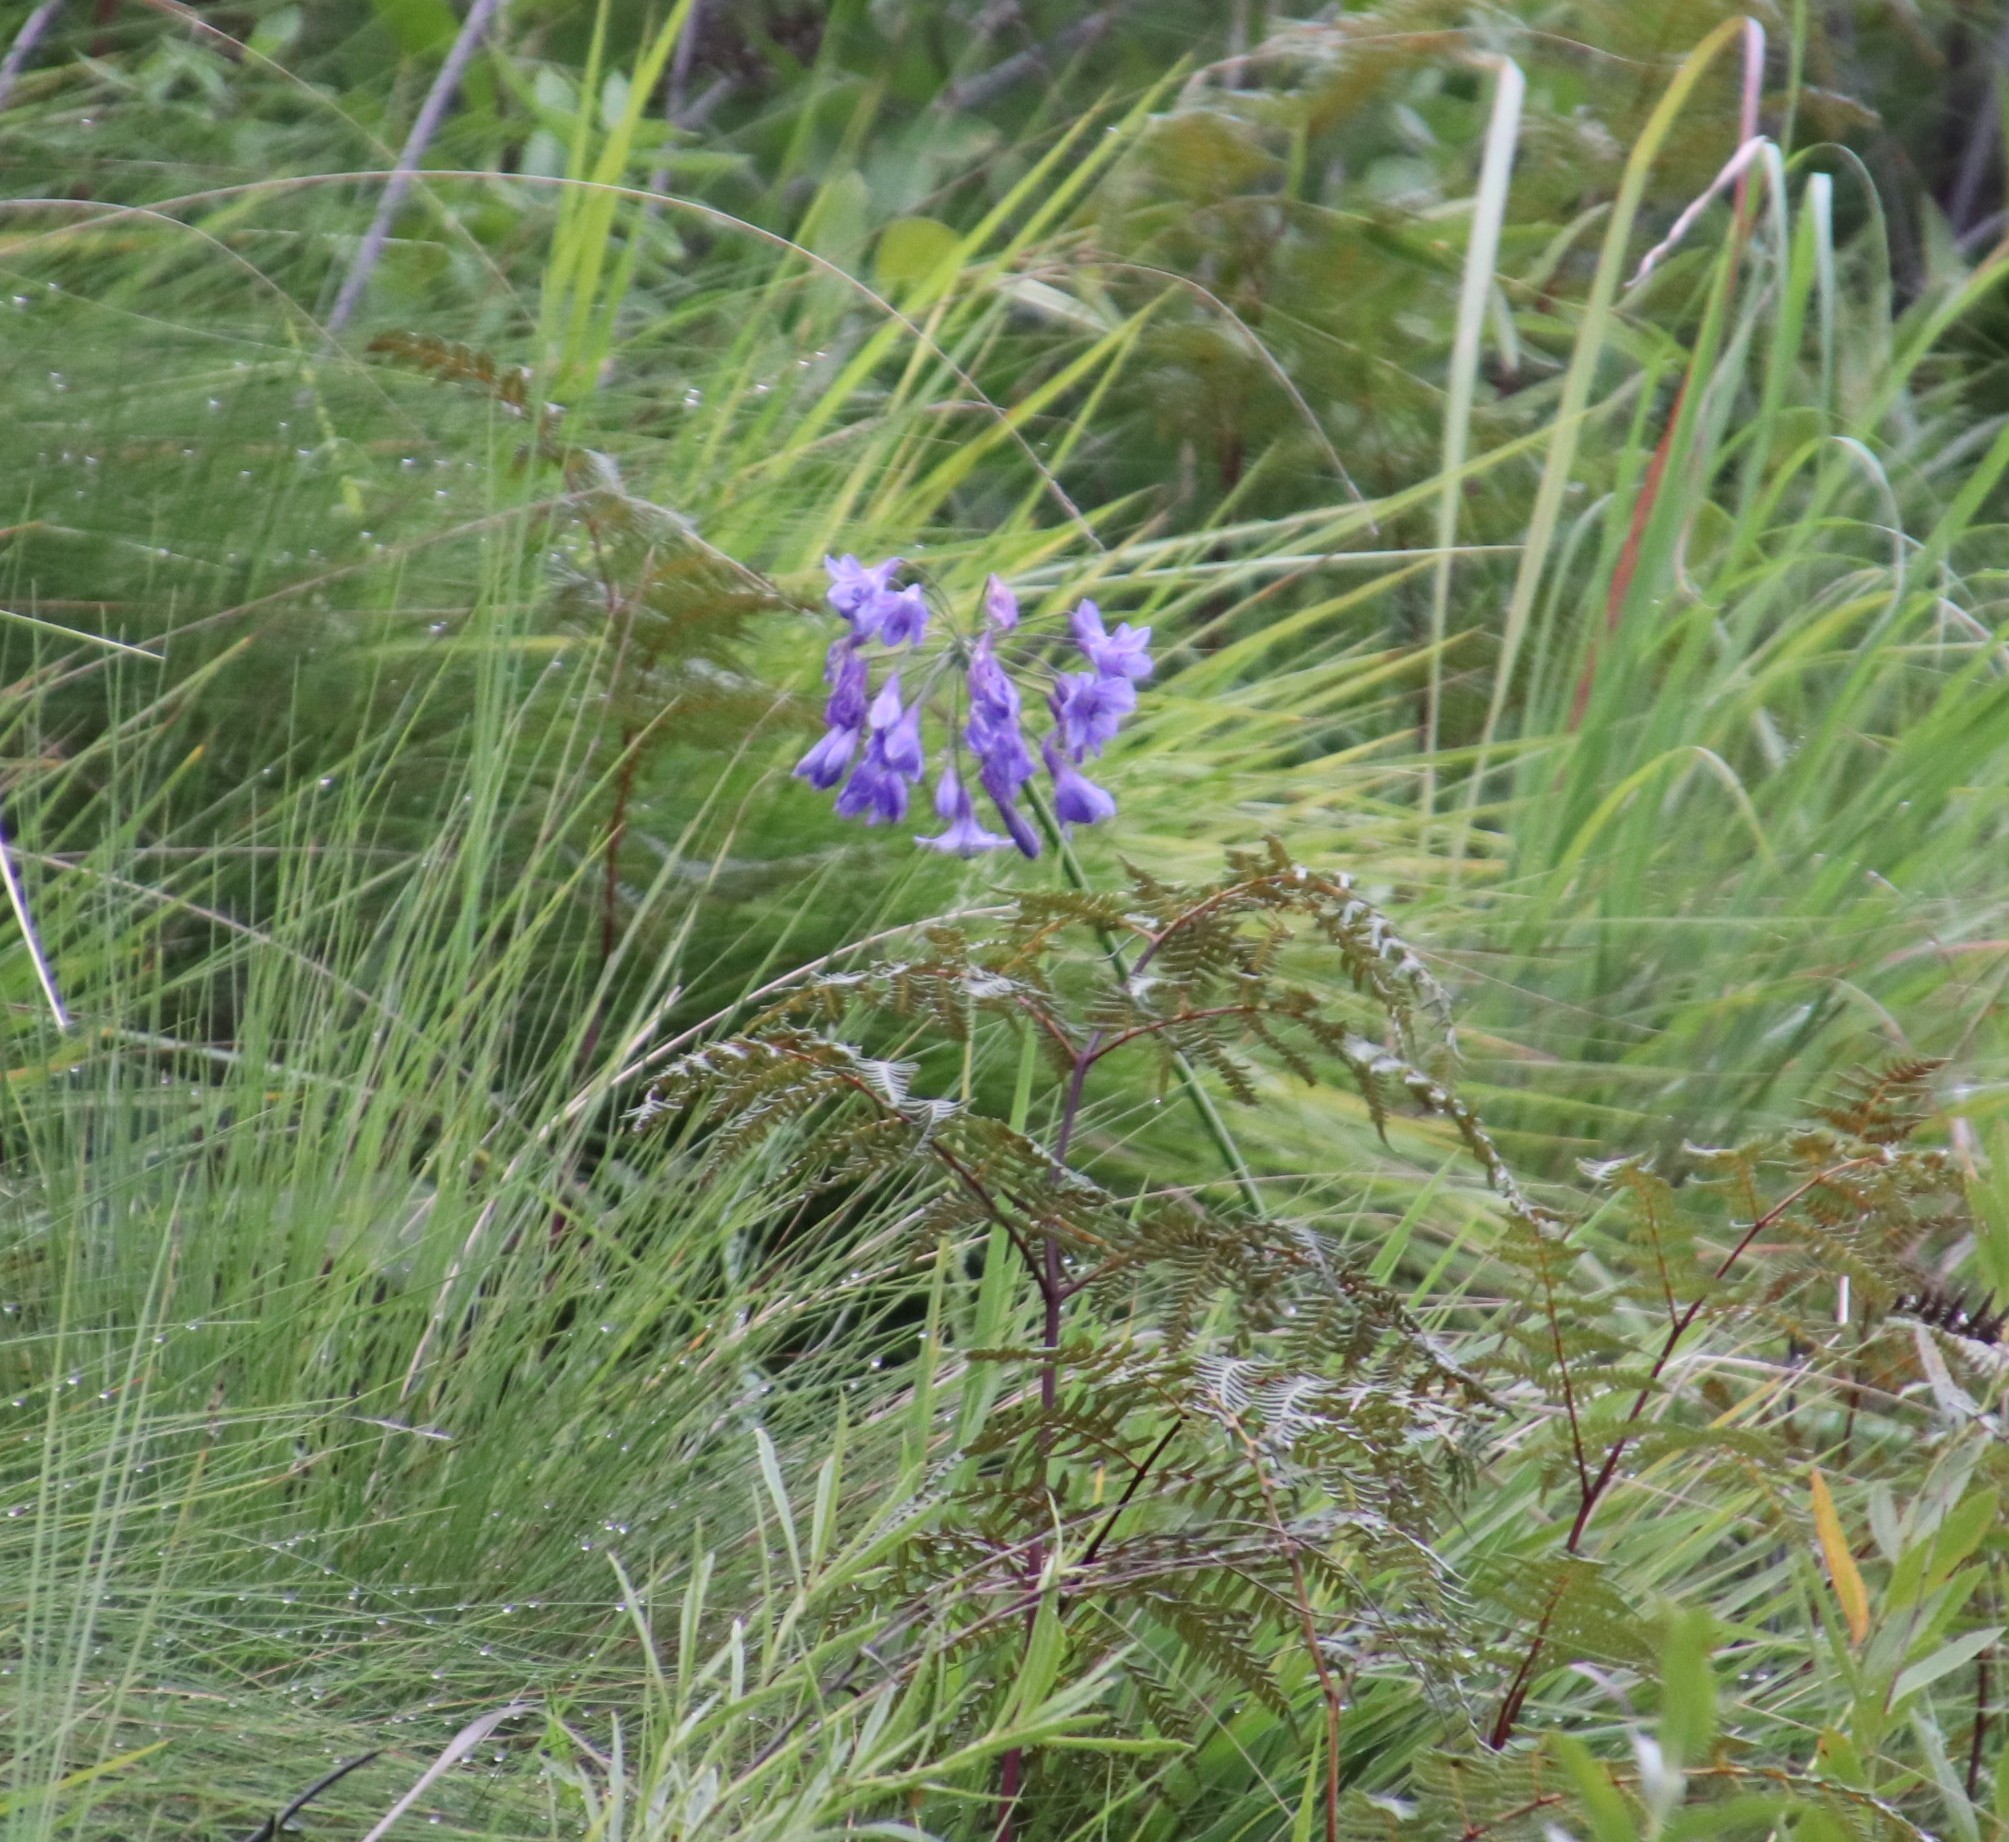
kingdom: Plantae
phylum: Tracheophyta
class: Liliopsida
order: Asparagales
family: Amaryllidaceae
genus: Agapanthus
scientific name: Agapanthus campanulatus
